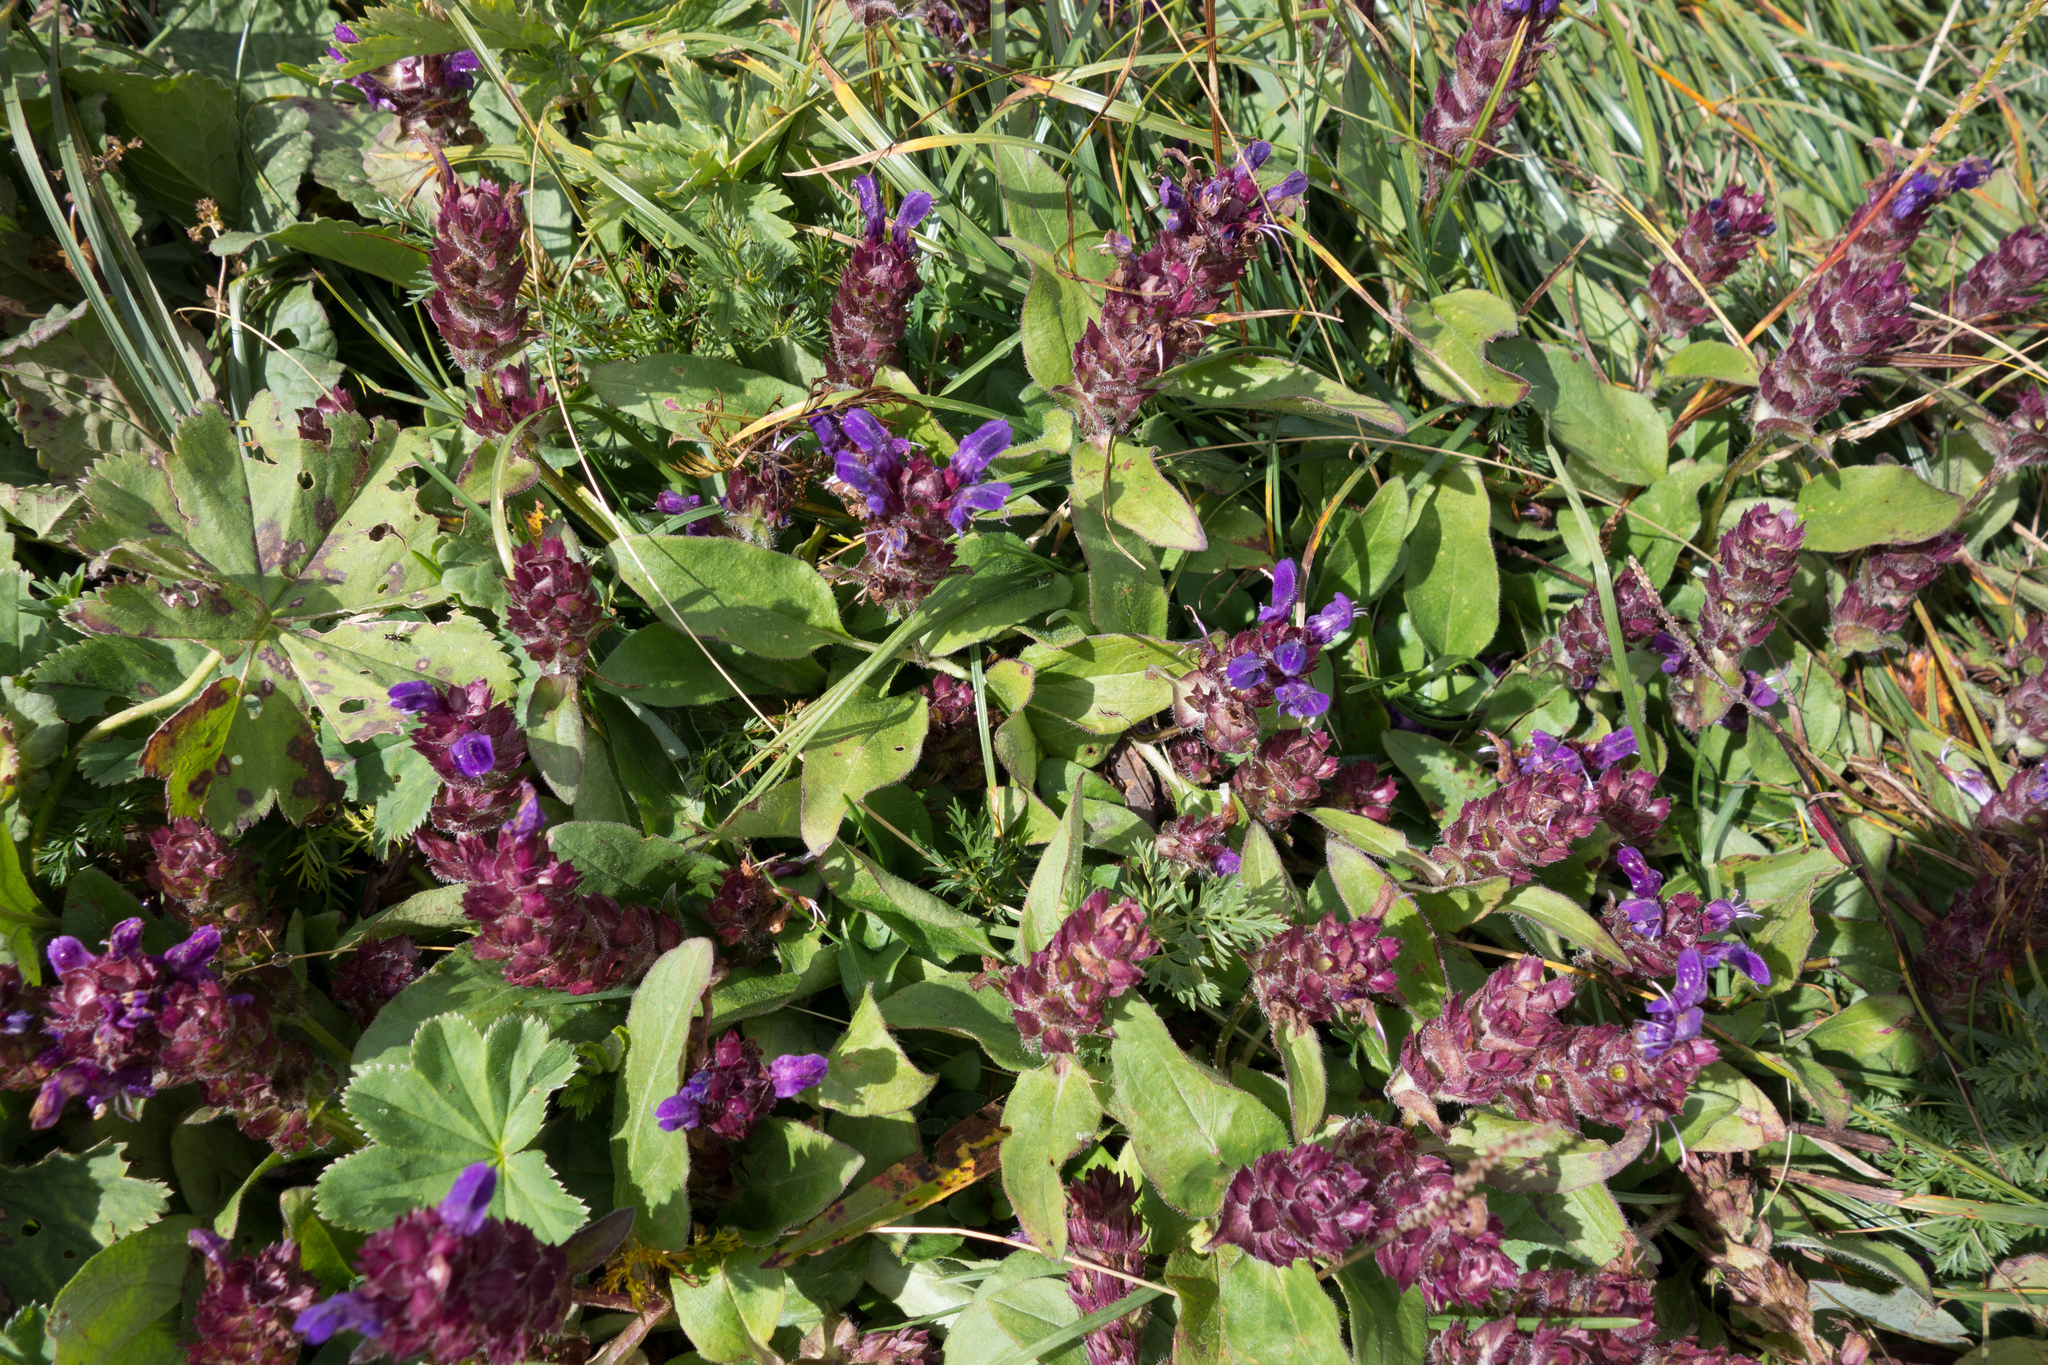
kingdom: Plantae
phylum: Tracheophyta
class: Magnoliopsida
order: Lamiales
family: Lamiaceae
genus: Prunella
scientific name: Prunella grandiflora
